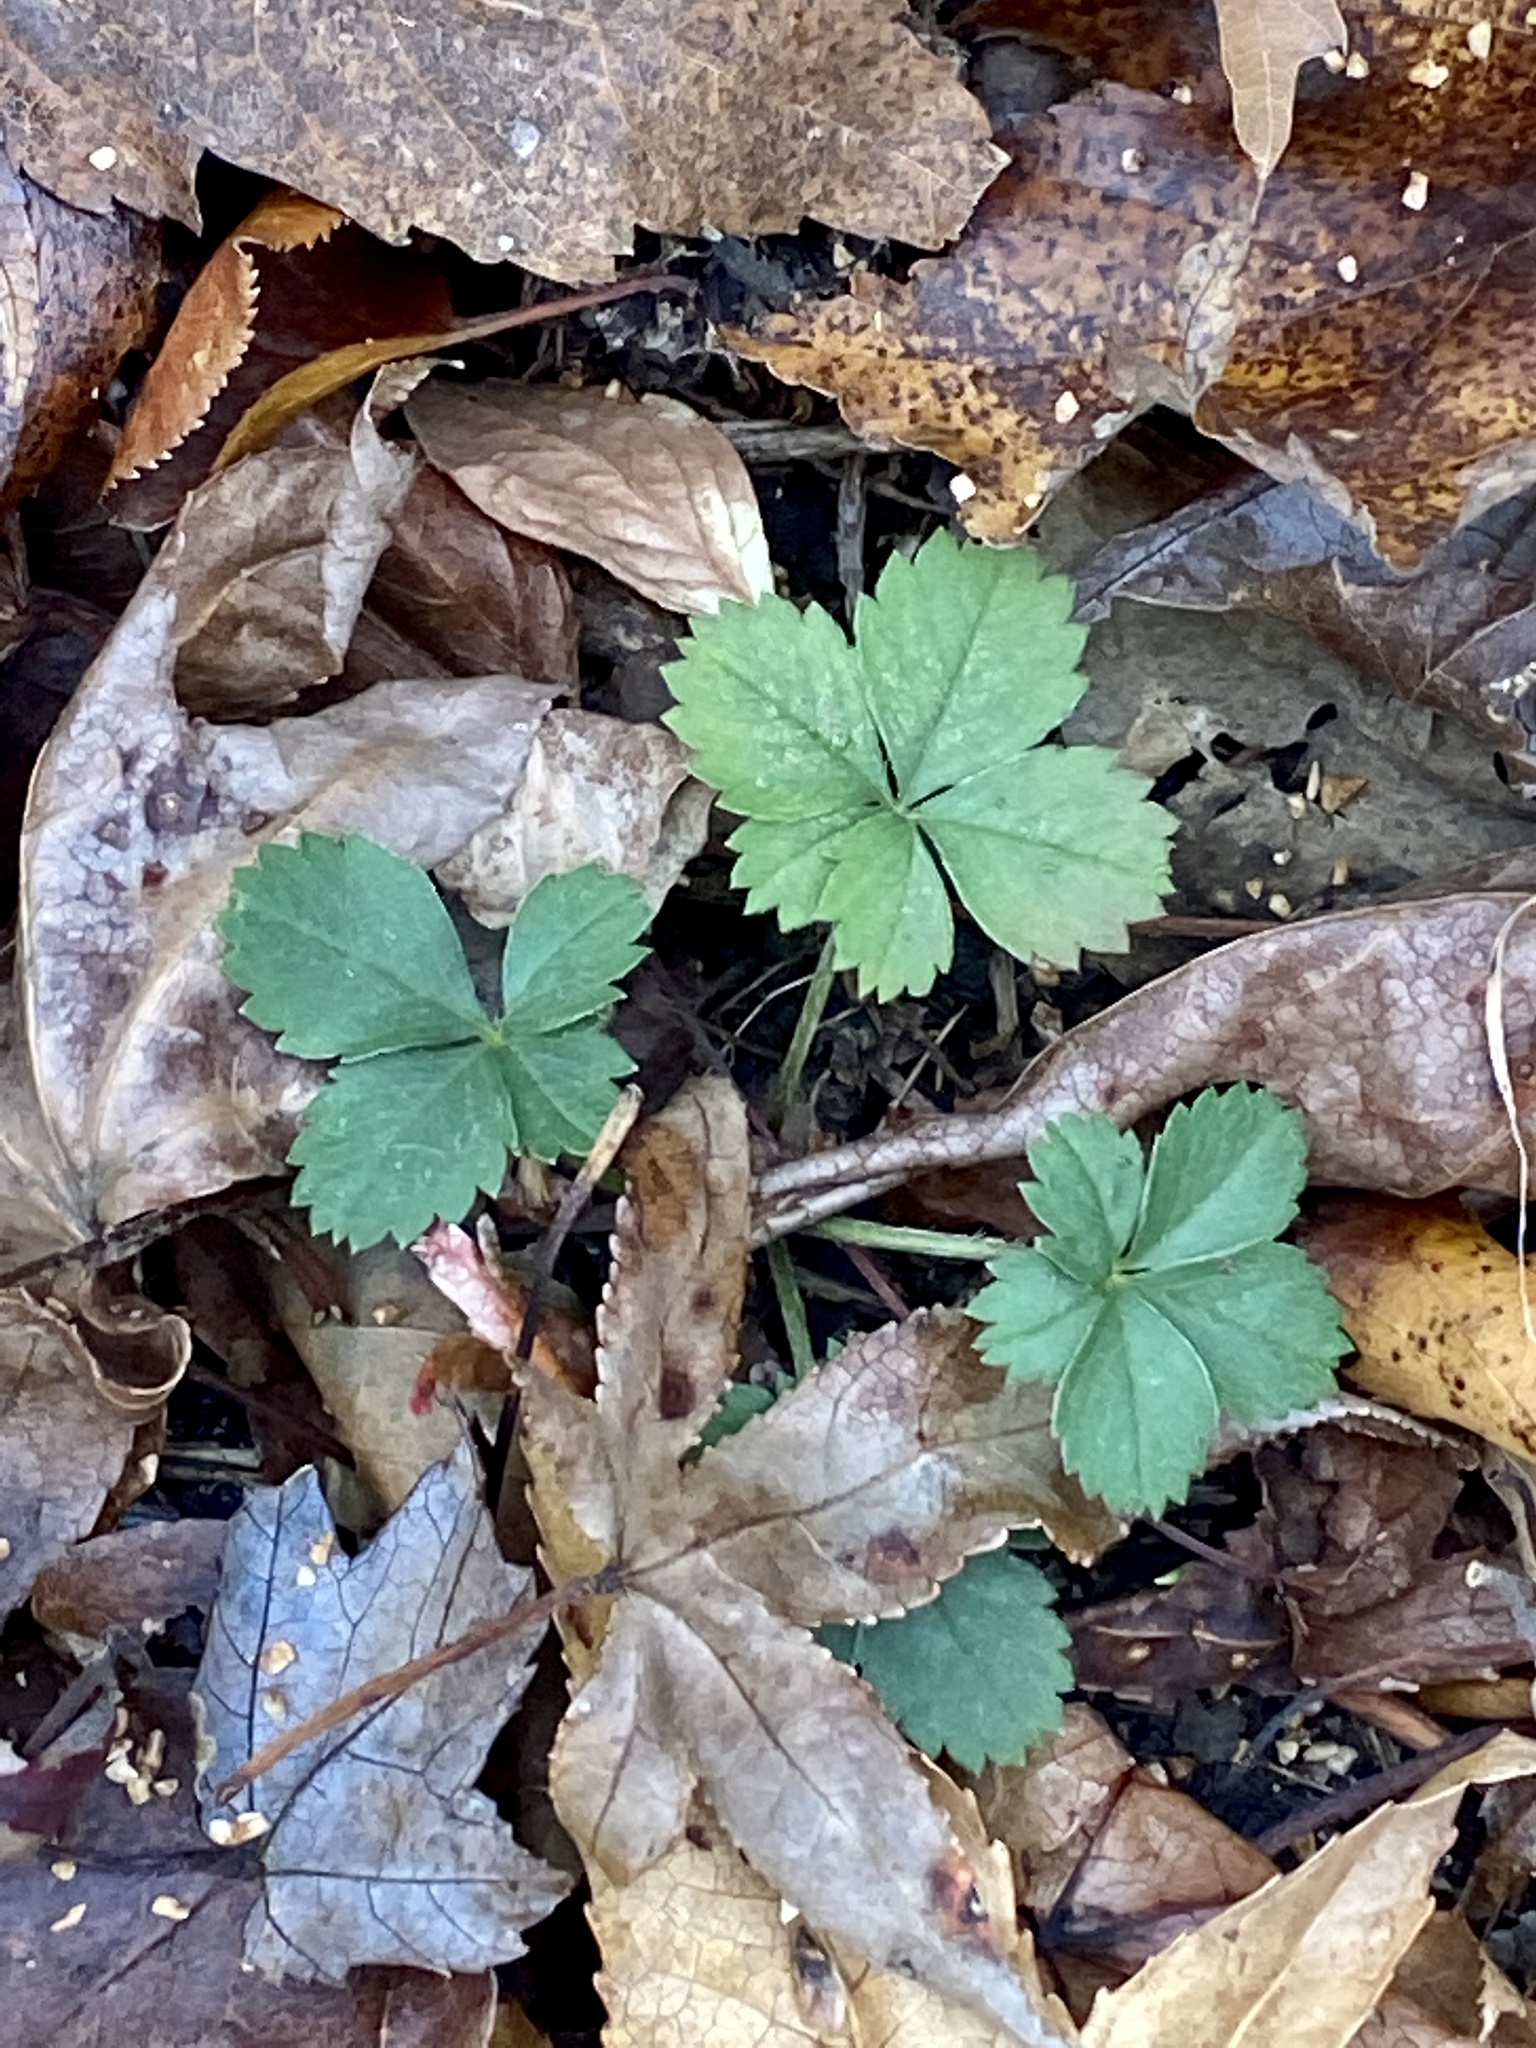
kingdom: Plantae
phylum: Tracheophyta
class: Magnoliopsida
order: Rosales
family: Rosaceae
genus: Potentilla
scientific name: Potentilla canadensis
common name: Canada cinquefoil
